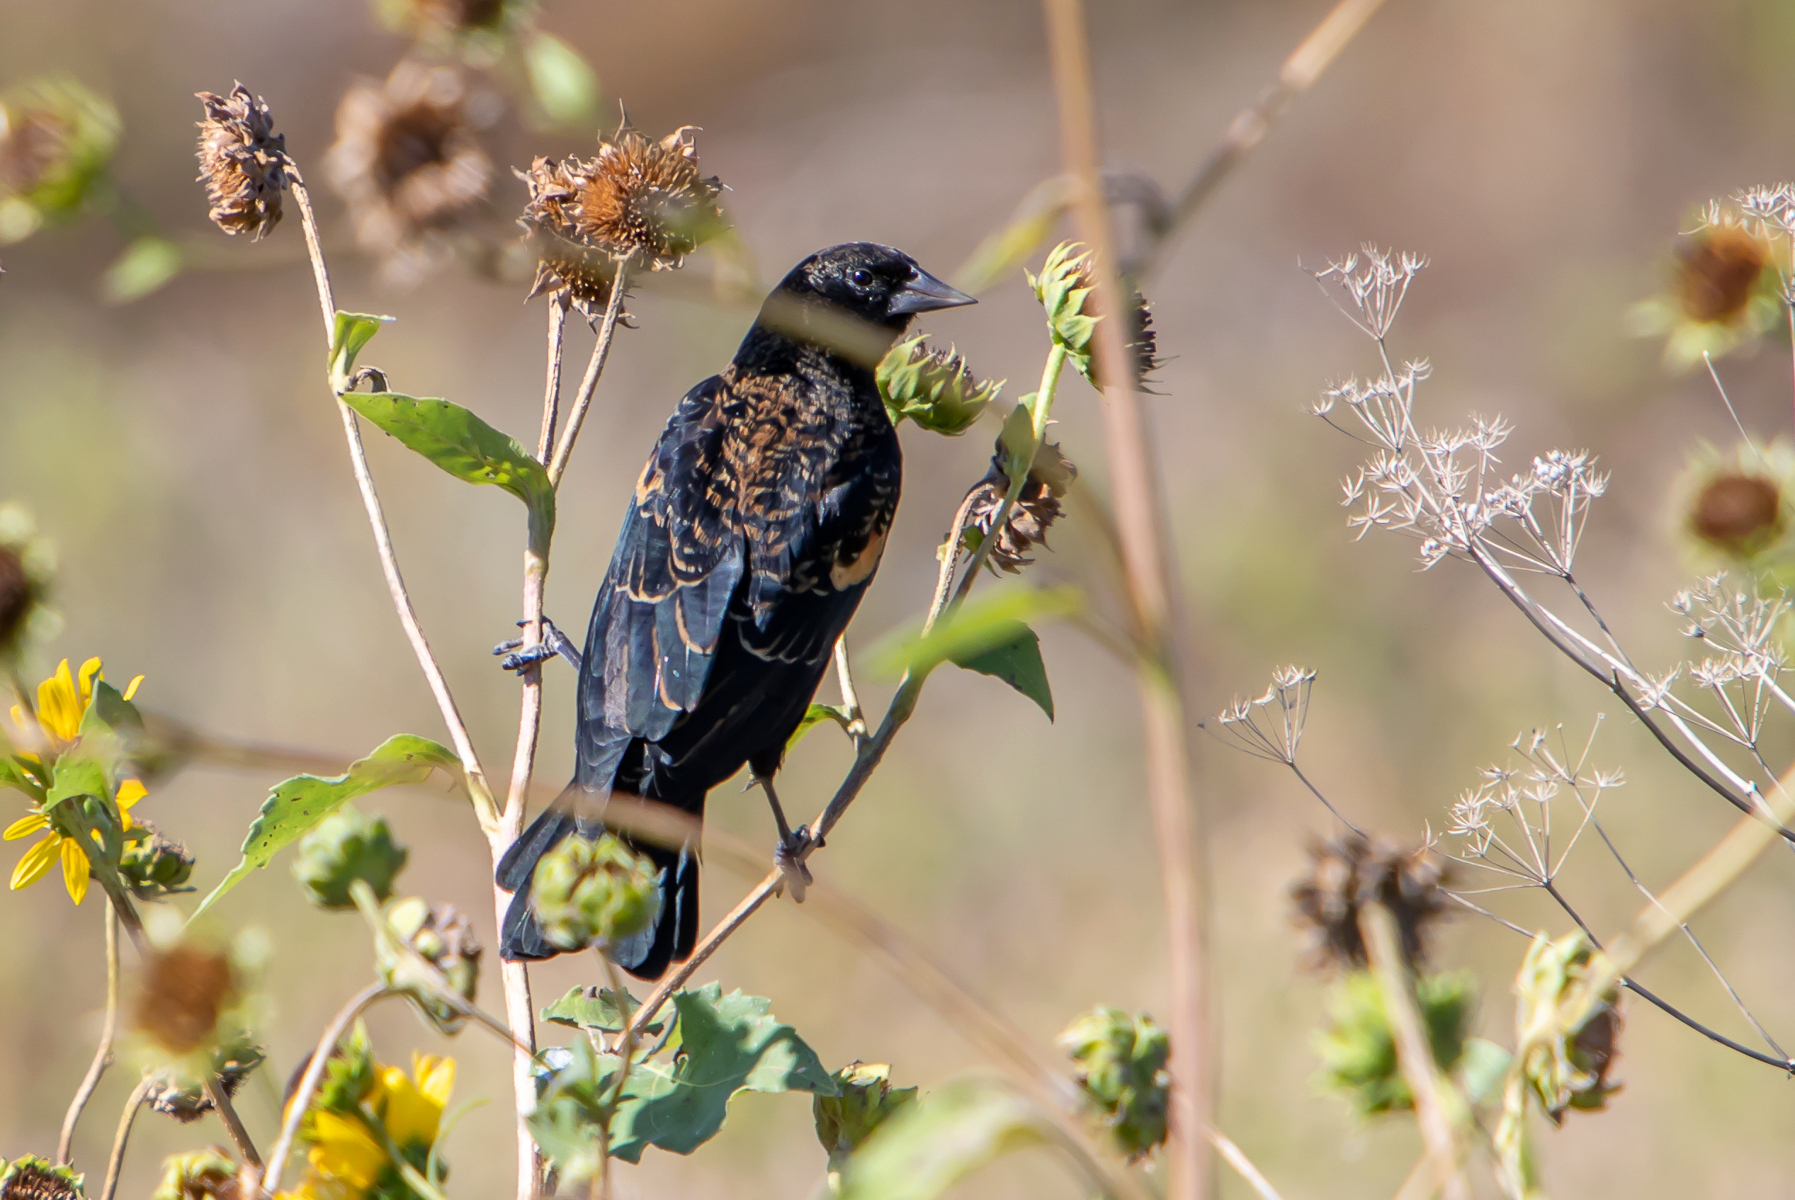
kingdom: Animalia
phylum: Chordata
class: Aves
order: Passeriformes
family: Icteridae
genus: Agelaius
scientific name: Agelaius phoeniceus
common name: Red-winged blackbird
